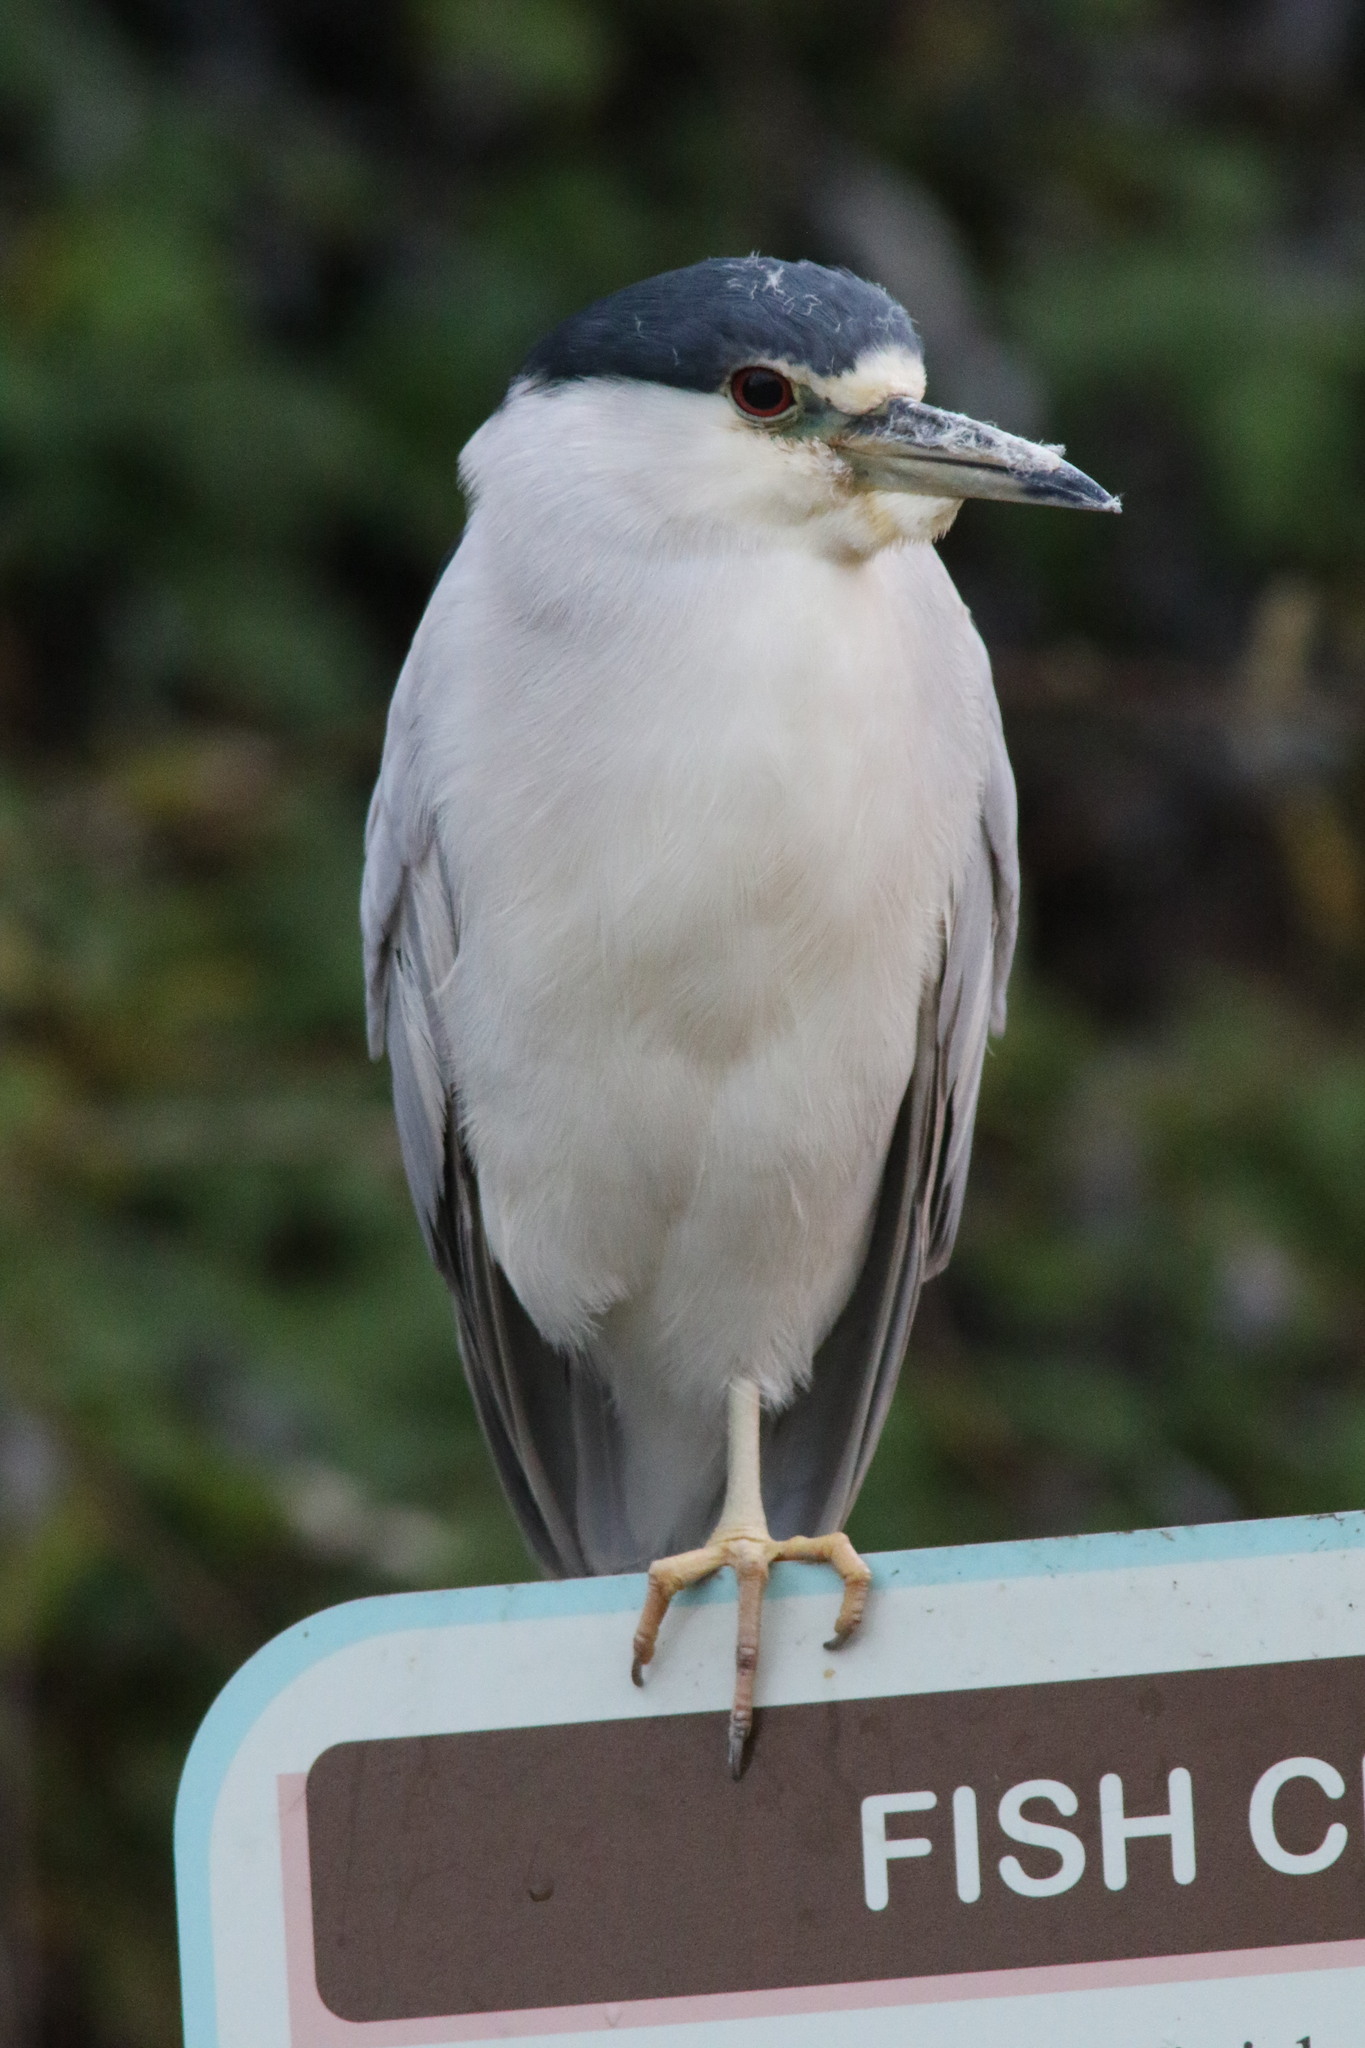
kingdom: Animalia
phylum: Chordata
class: Aves
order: Pelecaniformes
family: Ardeidae
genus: Nycticorax
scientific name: Nycticorax nycticorax
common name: Black-crowned night heron
